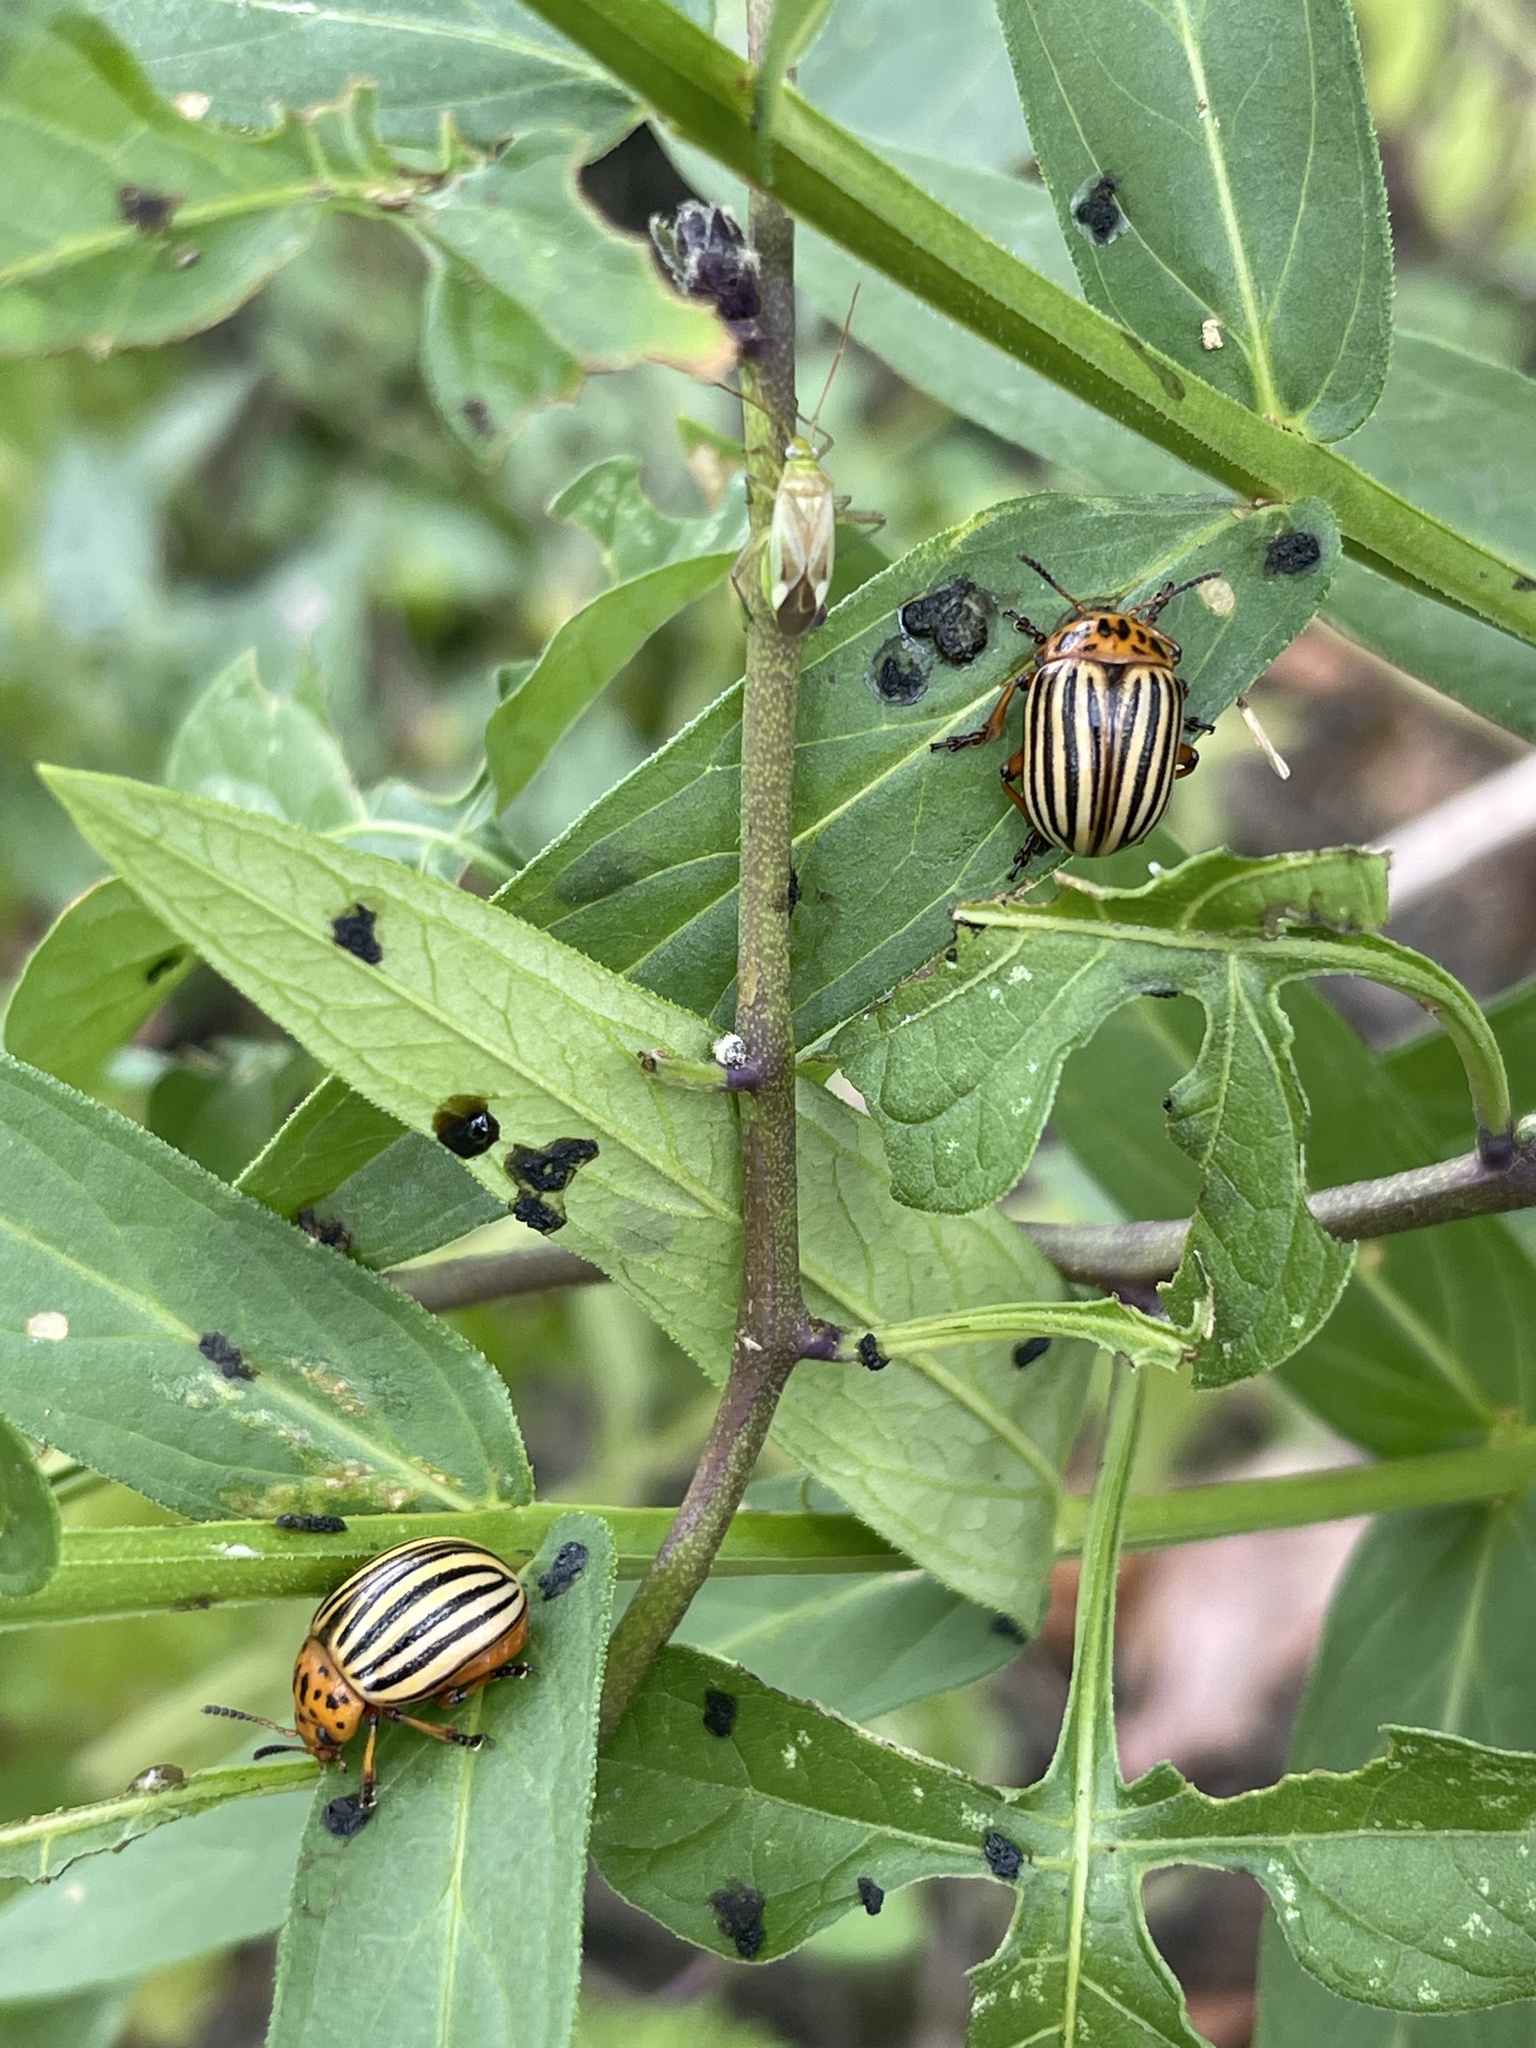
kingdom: Animalia
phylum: Arthropoda
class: Insecta
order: Coleoptera
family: Chrysomelidae
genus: Leptinotarsa
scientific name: Leptinotarsa decemlineata
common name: Colorado potato beetle
